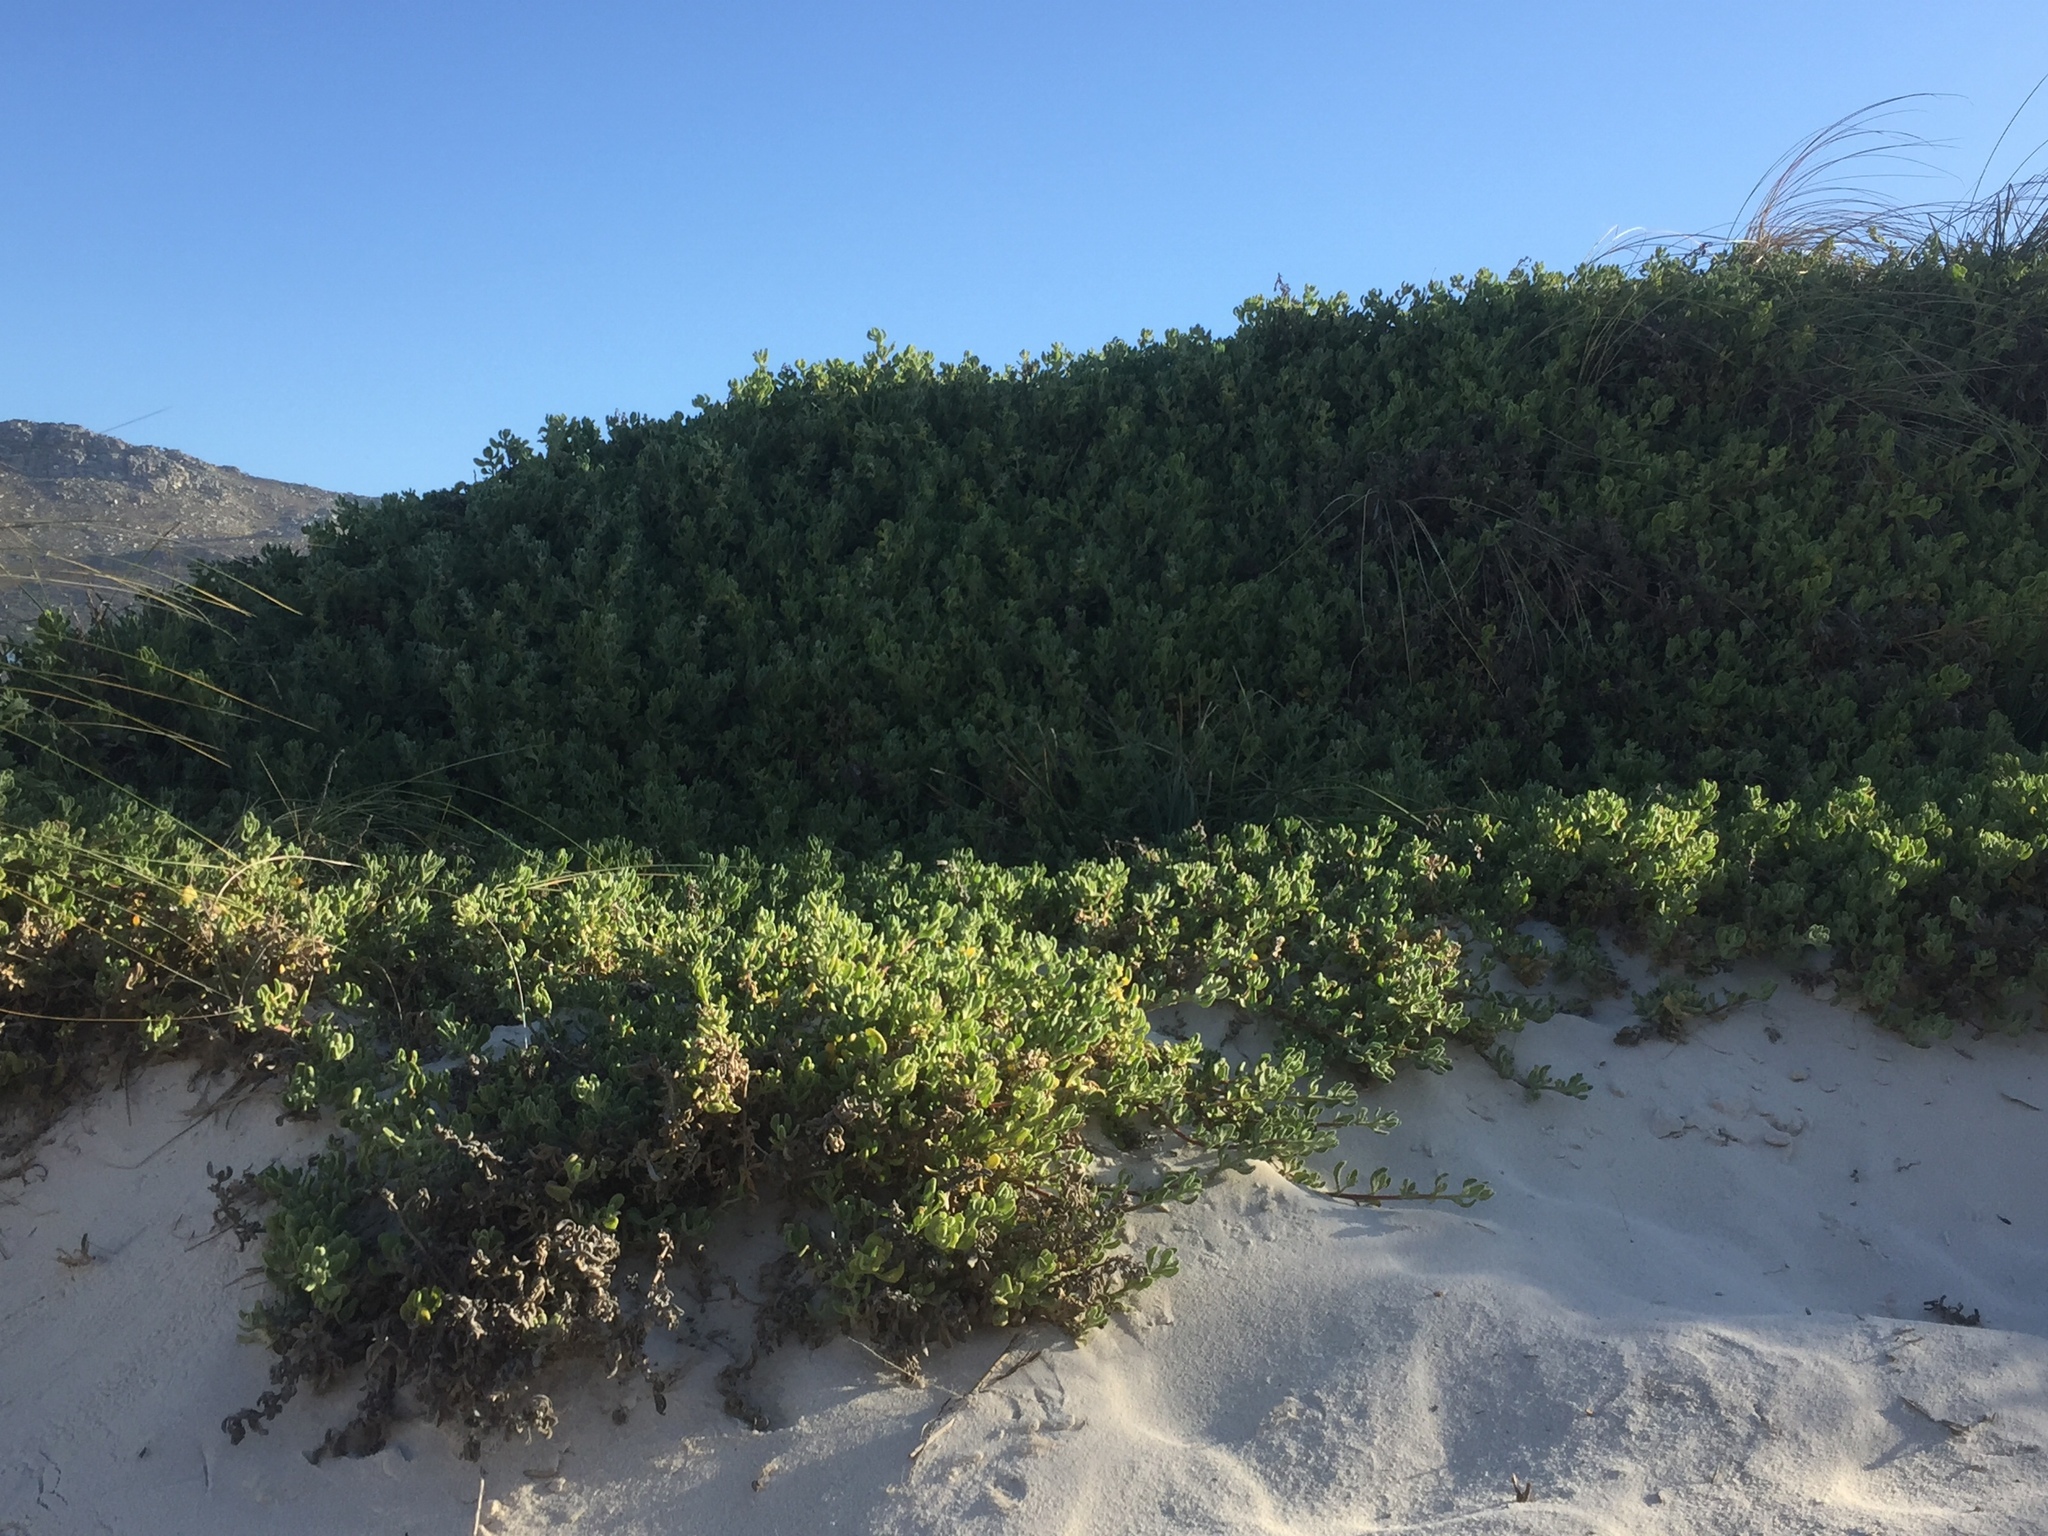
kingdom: Plantae
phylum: Tracheophyta
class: Magnoliopsida
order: Caryophyllales
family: Aizoaceae
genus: Tetragonia
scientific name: Tetragonia decumbens
